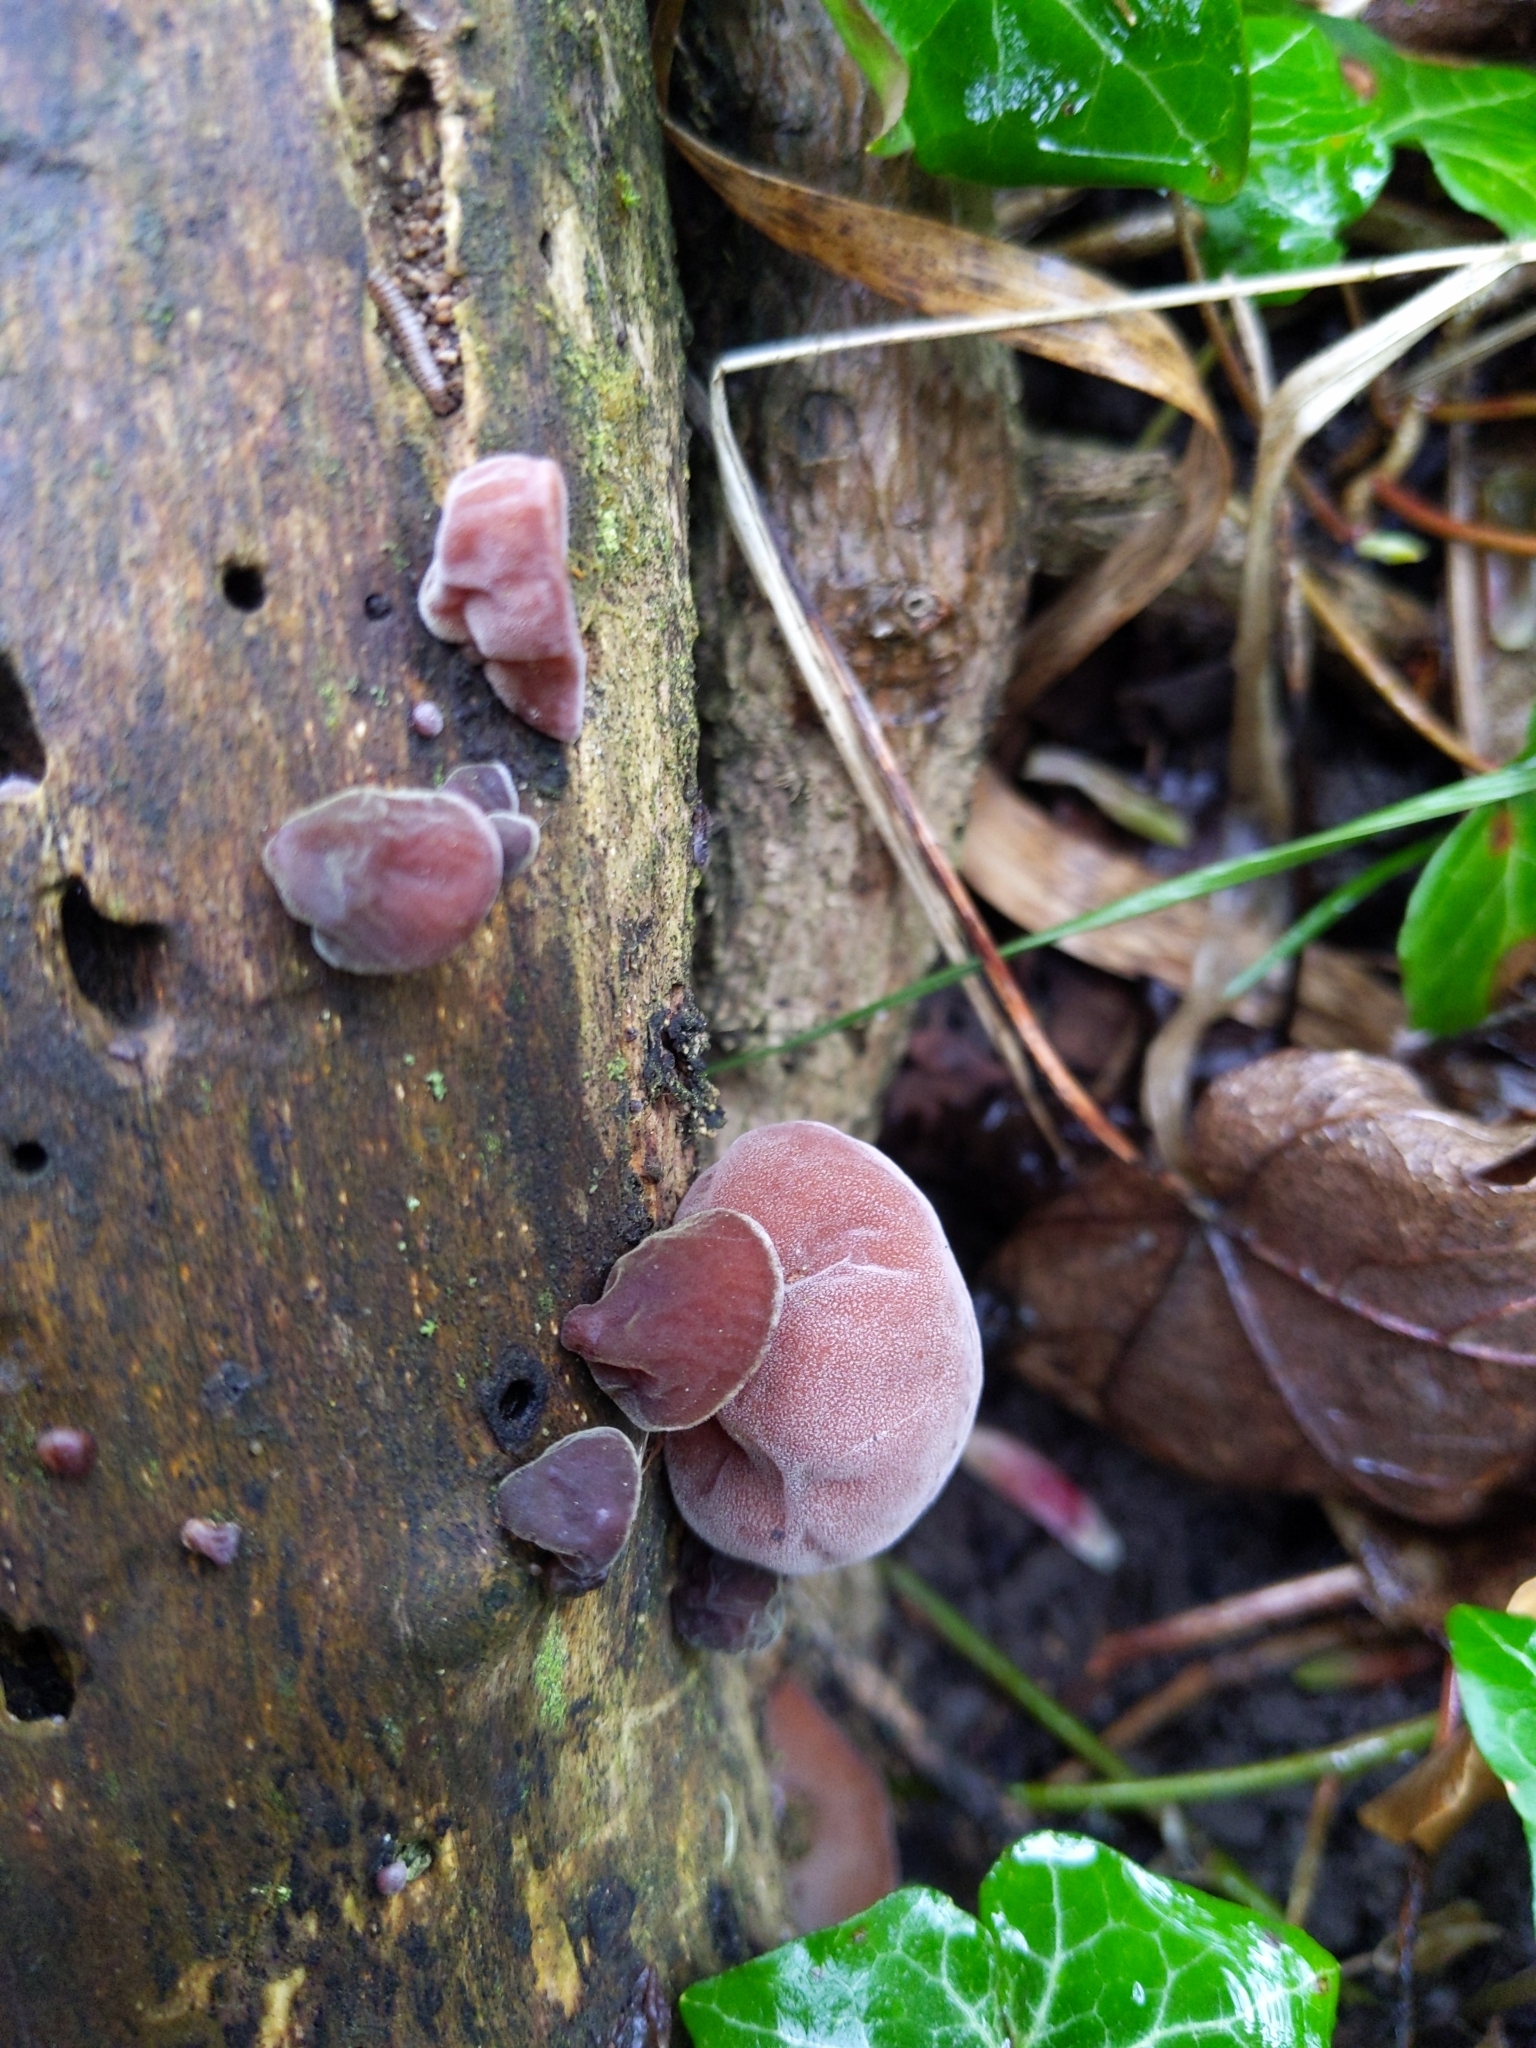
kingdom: Fungi
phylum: Basidiomycota
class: Agaricomycetes
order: Auriculariales
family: Auriculariaceae
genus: Auricularia
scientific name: Auricularia auricula-judae
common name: Jelly ear
